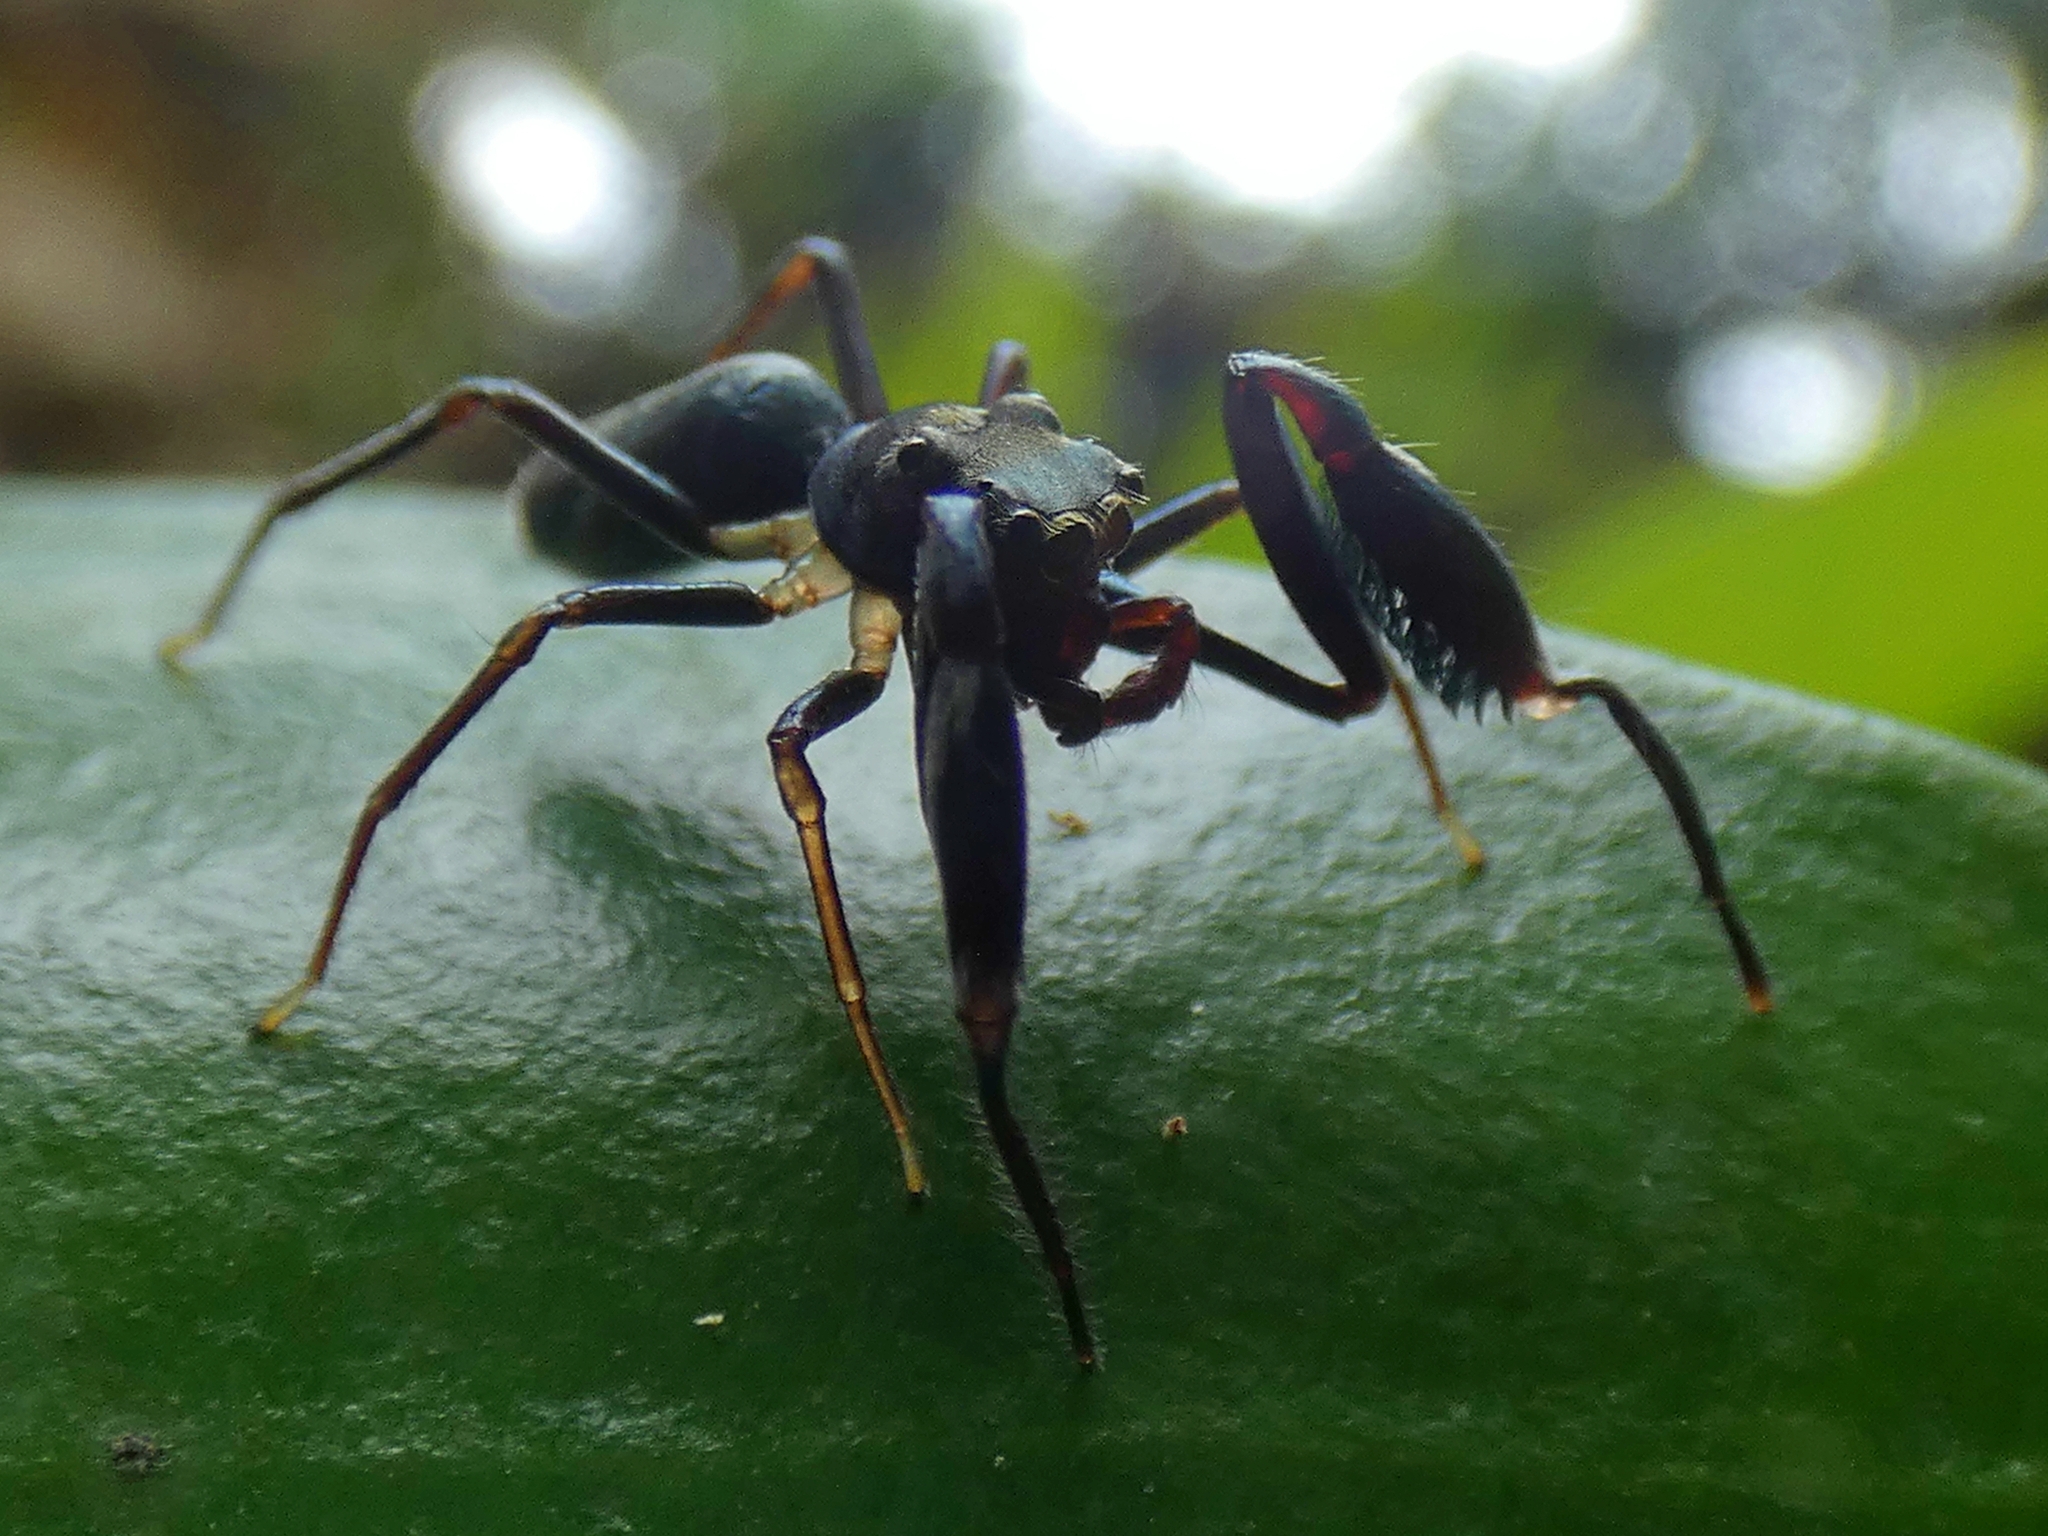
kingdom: Animalia
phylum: Arthropoda
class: Arachnida
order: Araneae
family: Salticidae
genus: Ohilimia
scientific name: Ohilimia scutellata
